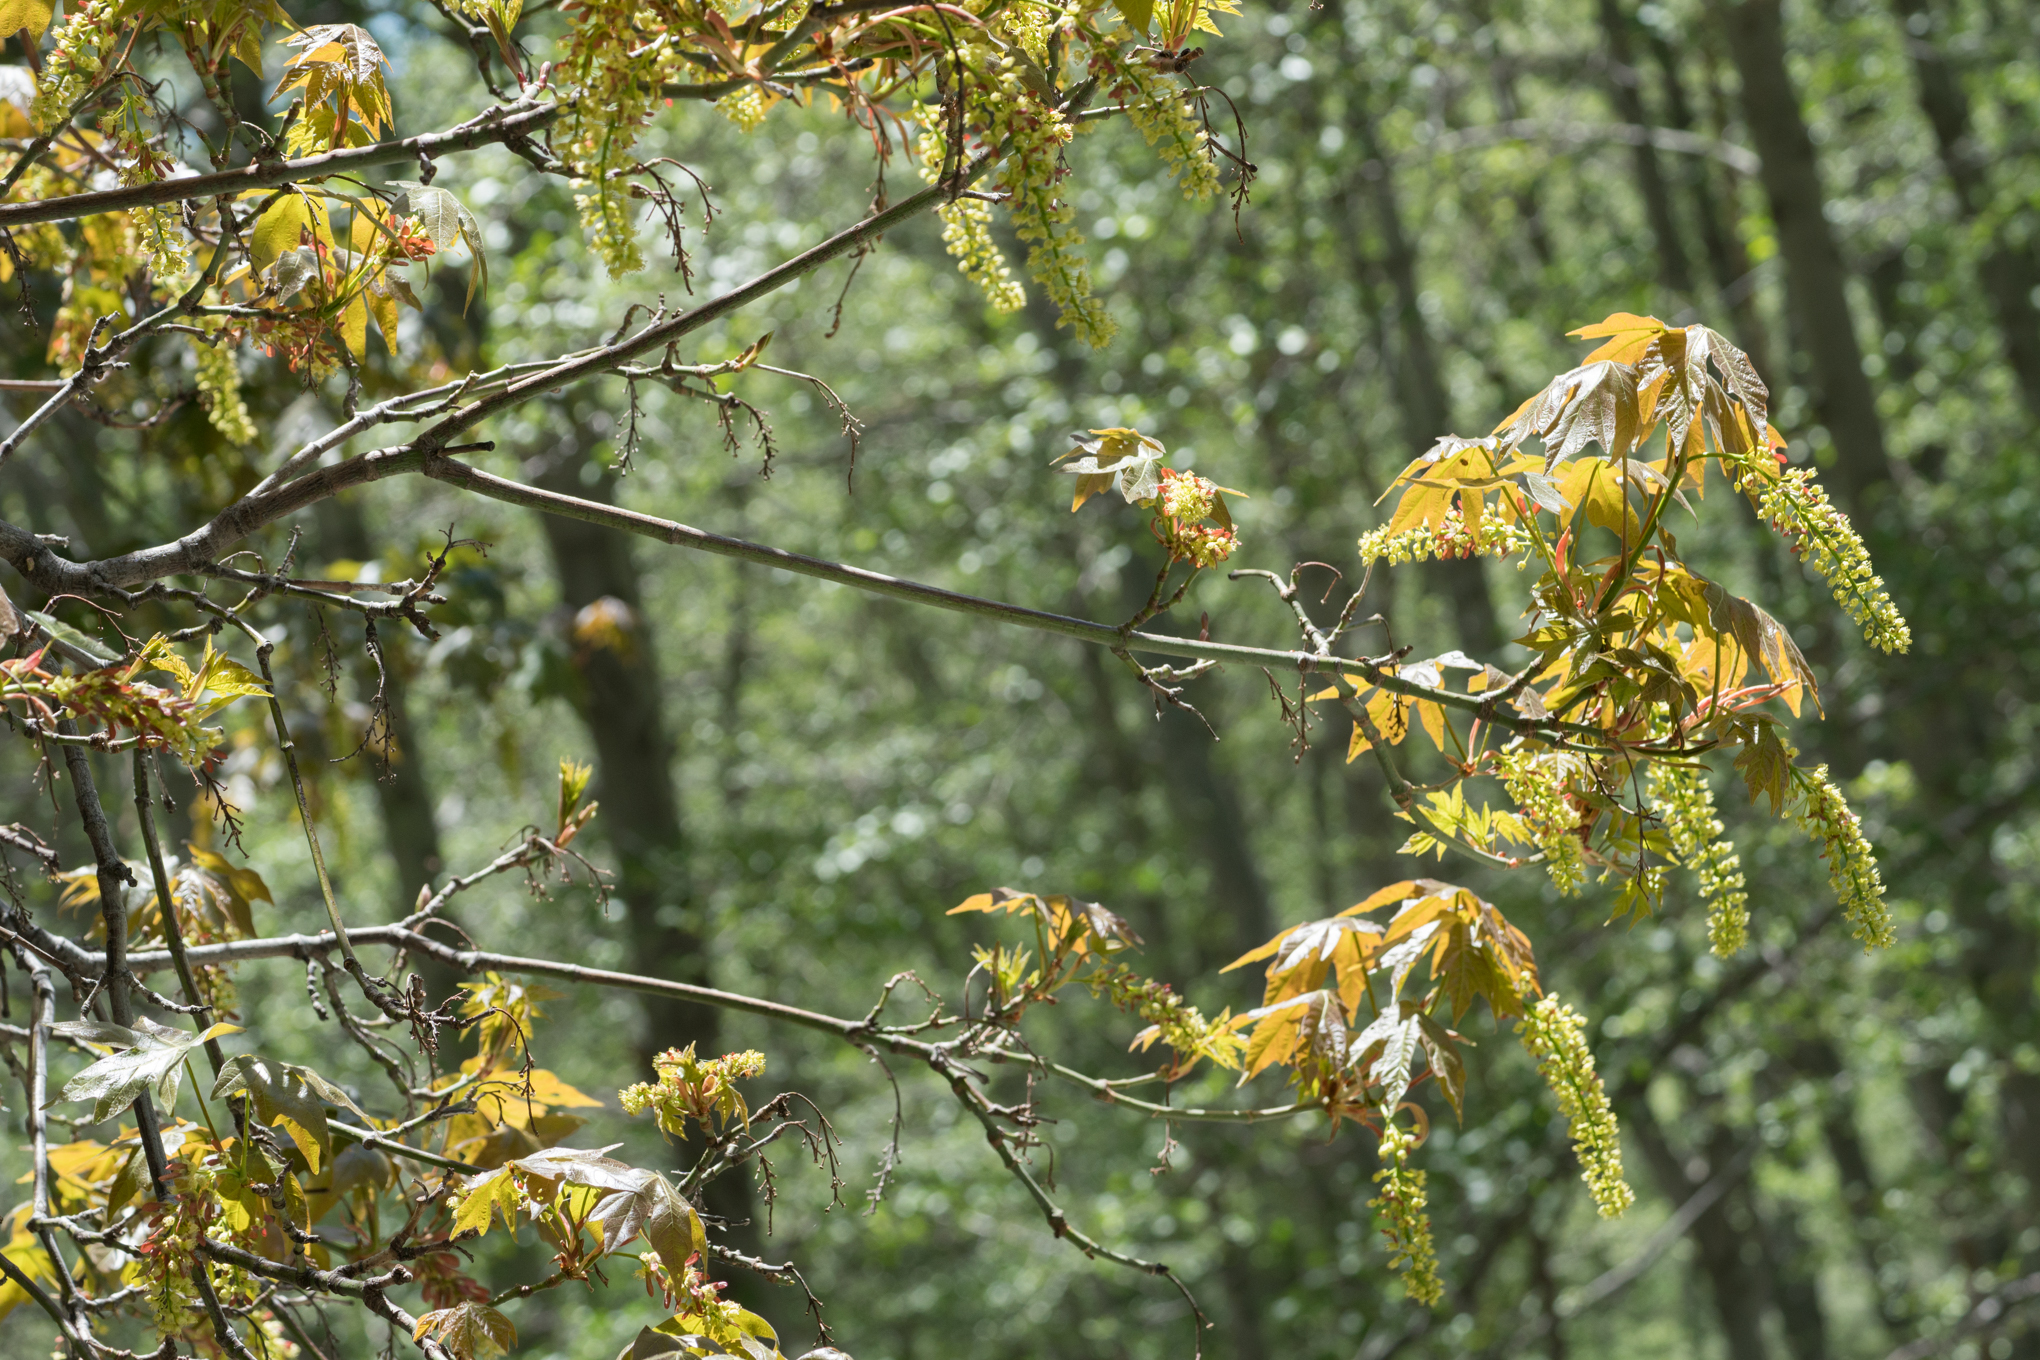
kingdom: Plantae
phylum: Tracheophyta
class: Magnoliopsida
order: Sapindales
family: Sapindaceae
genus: Acer
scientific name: Acer macrophyllum
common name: Oregon maple
